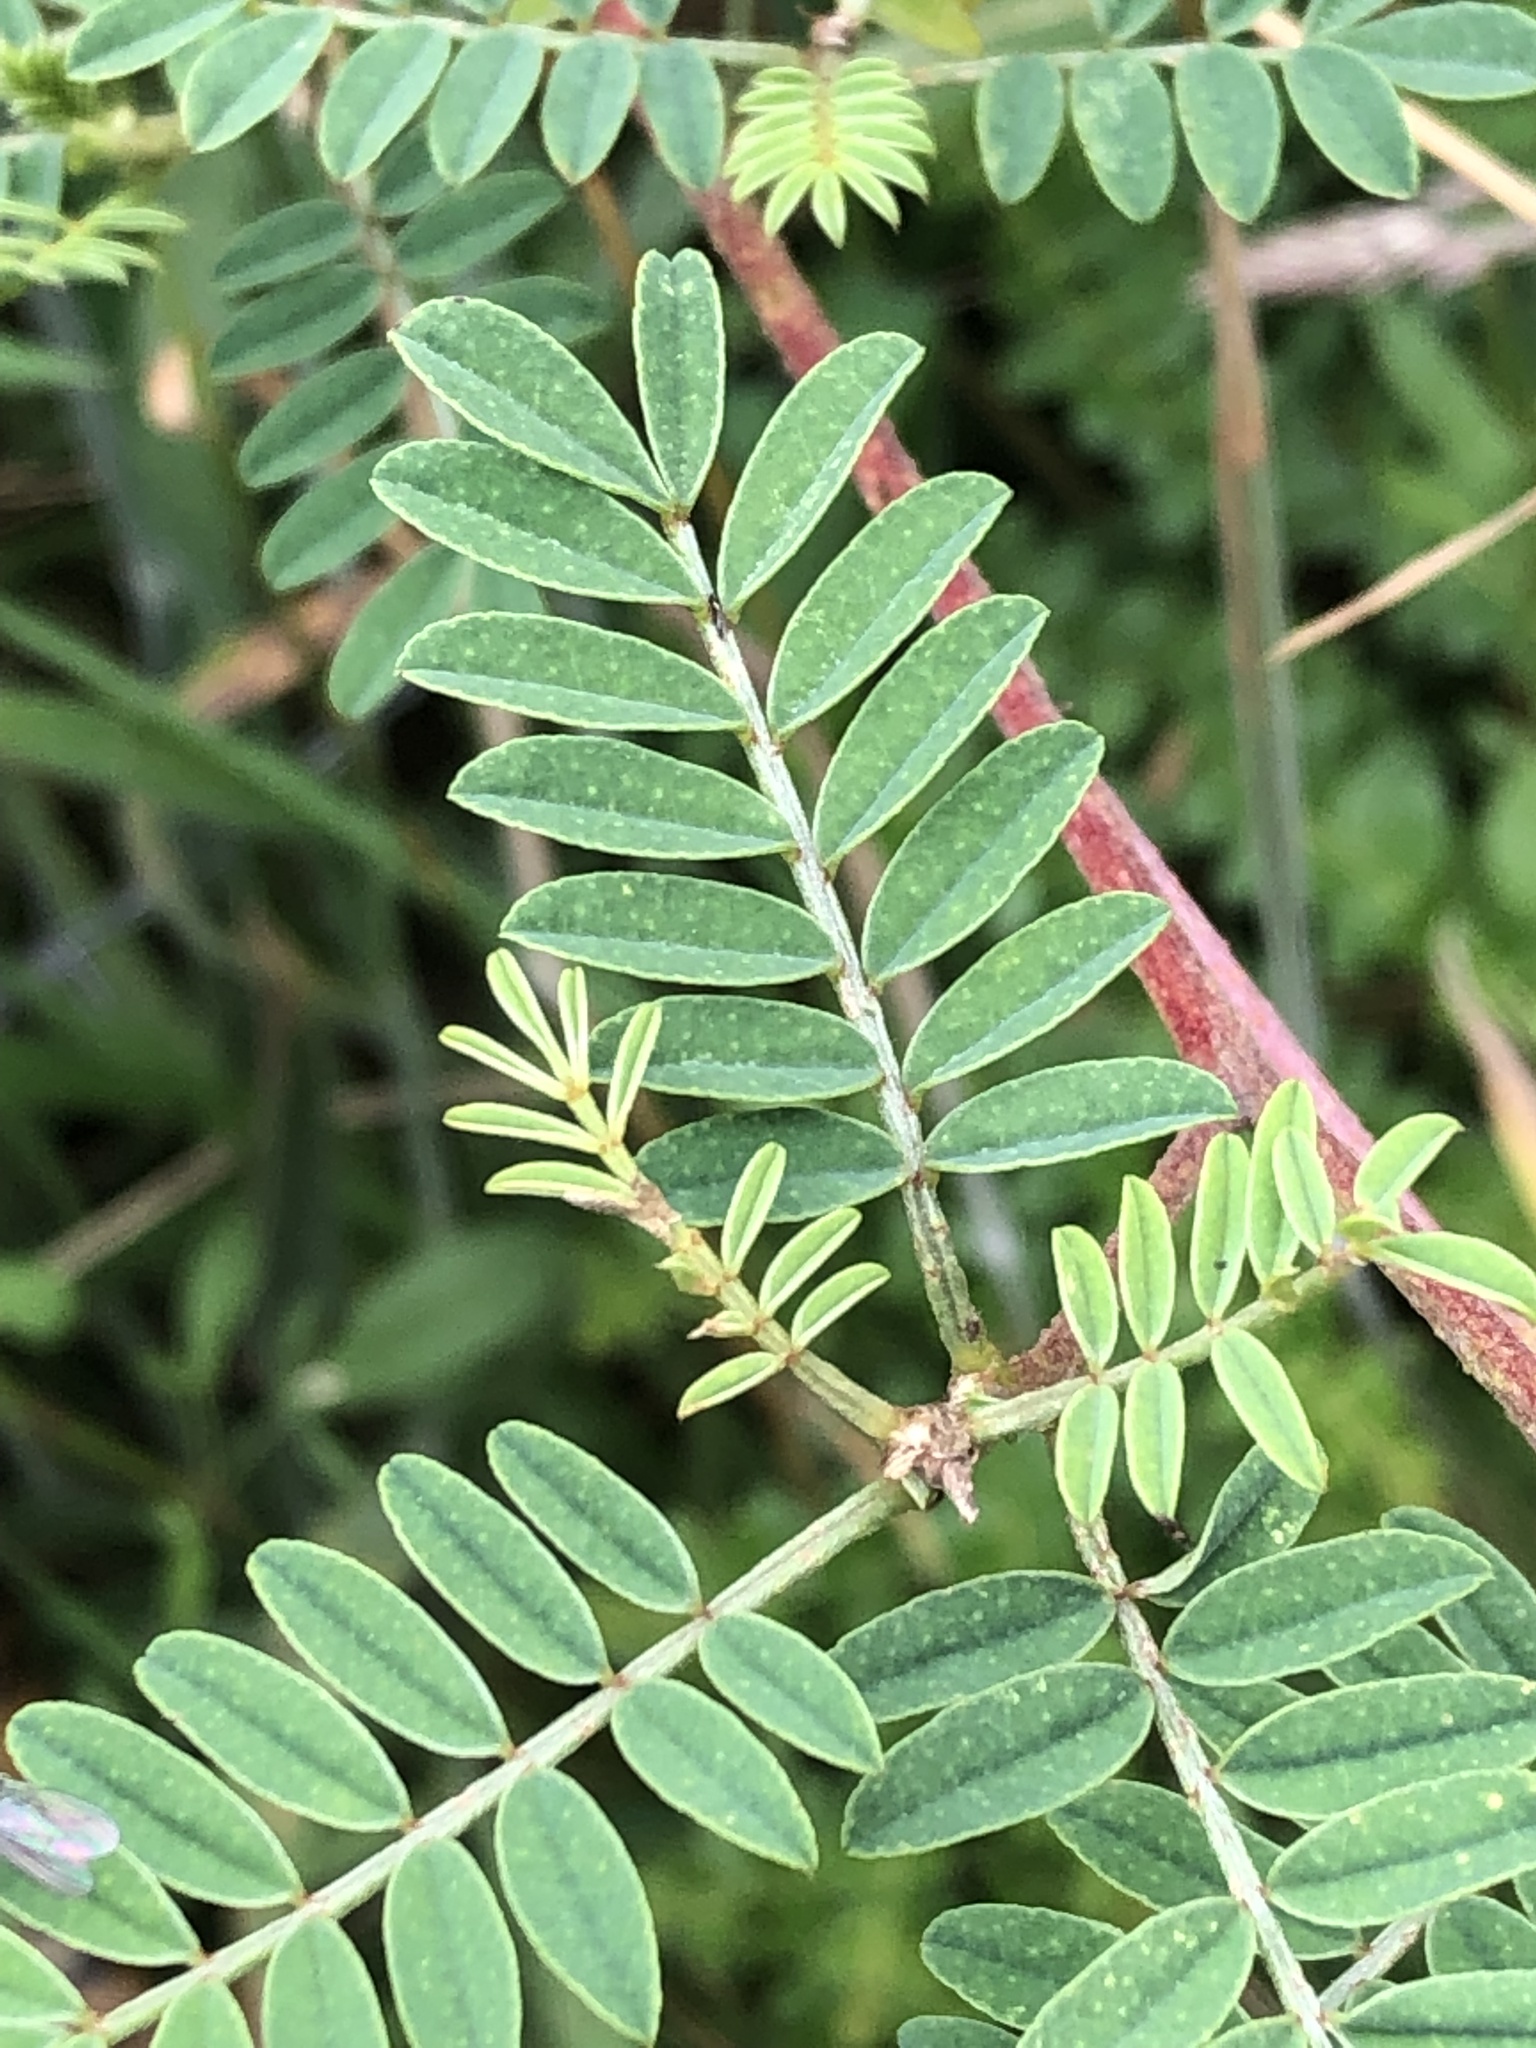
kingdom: Plantae
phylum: Tracheophyta
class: Magnoliopsida
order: Fabales
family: Fabaceae
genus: Dalea
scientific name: Dalea coerulea
